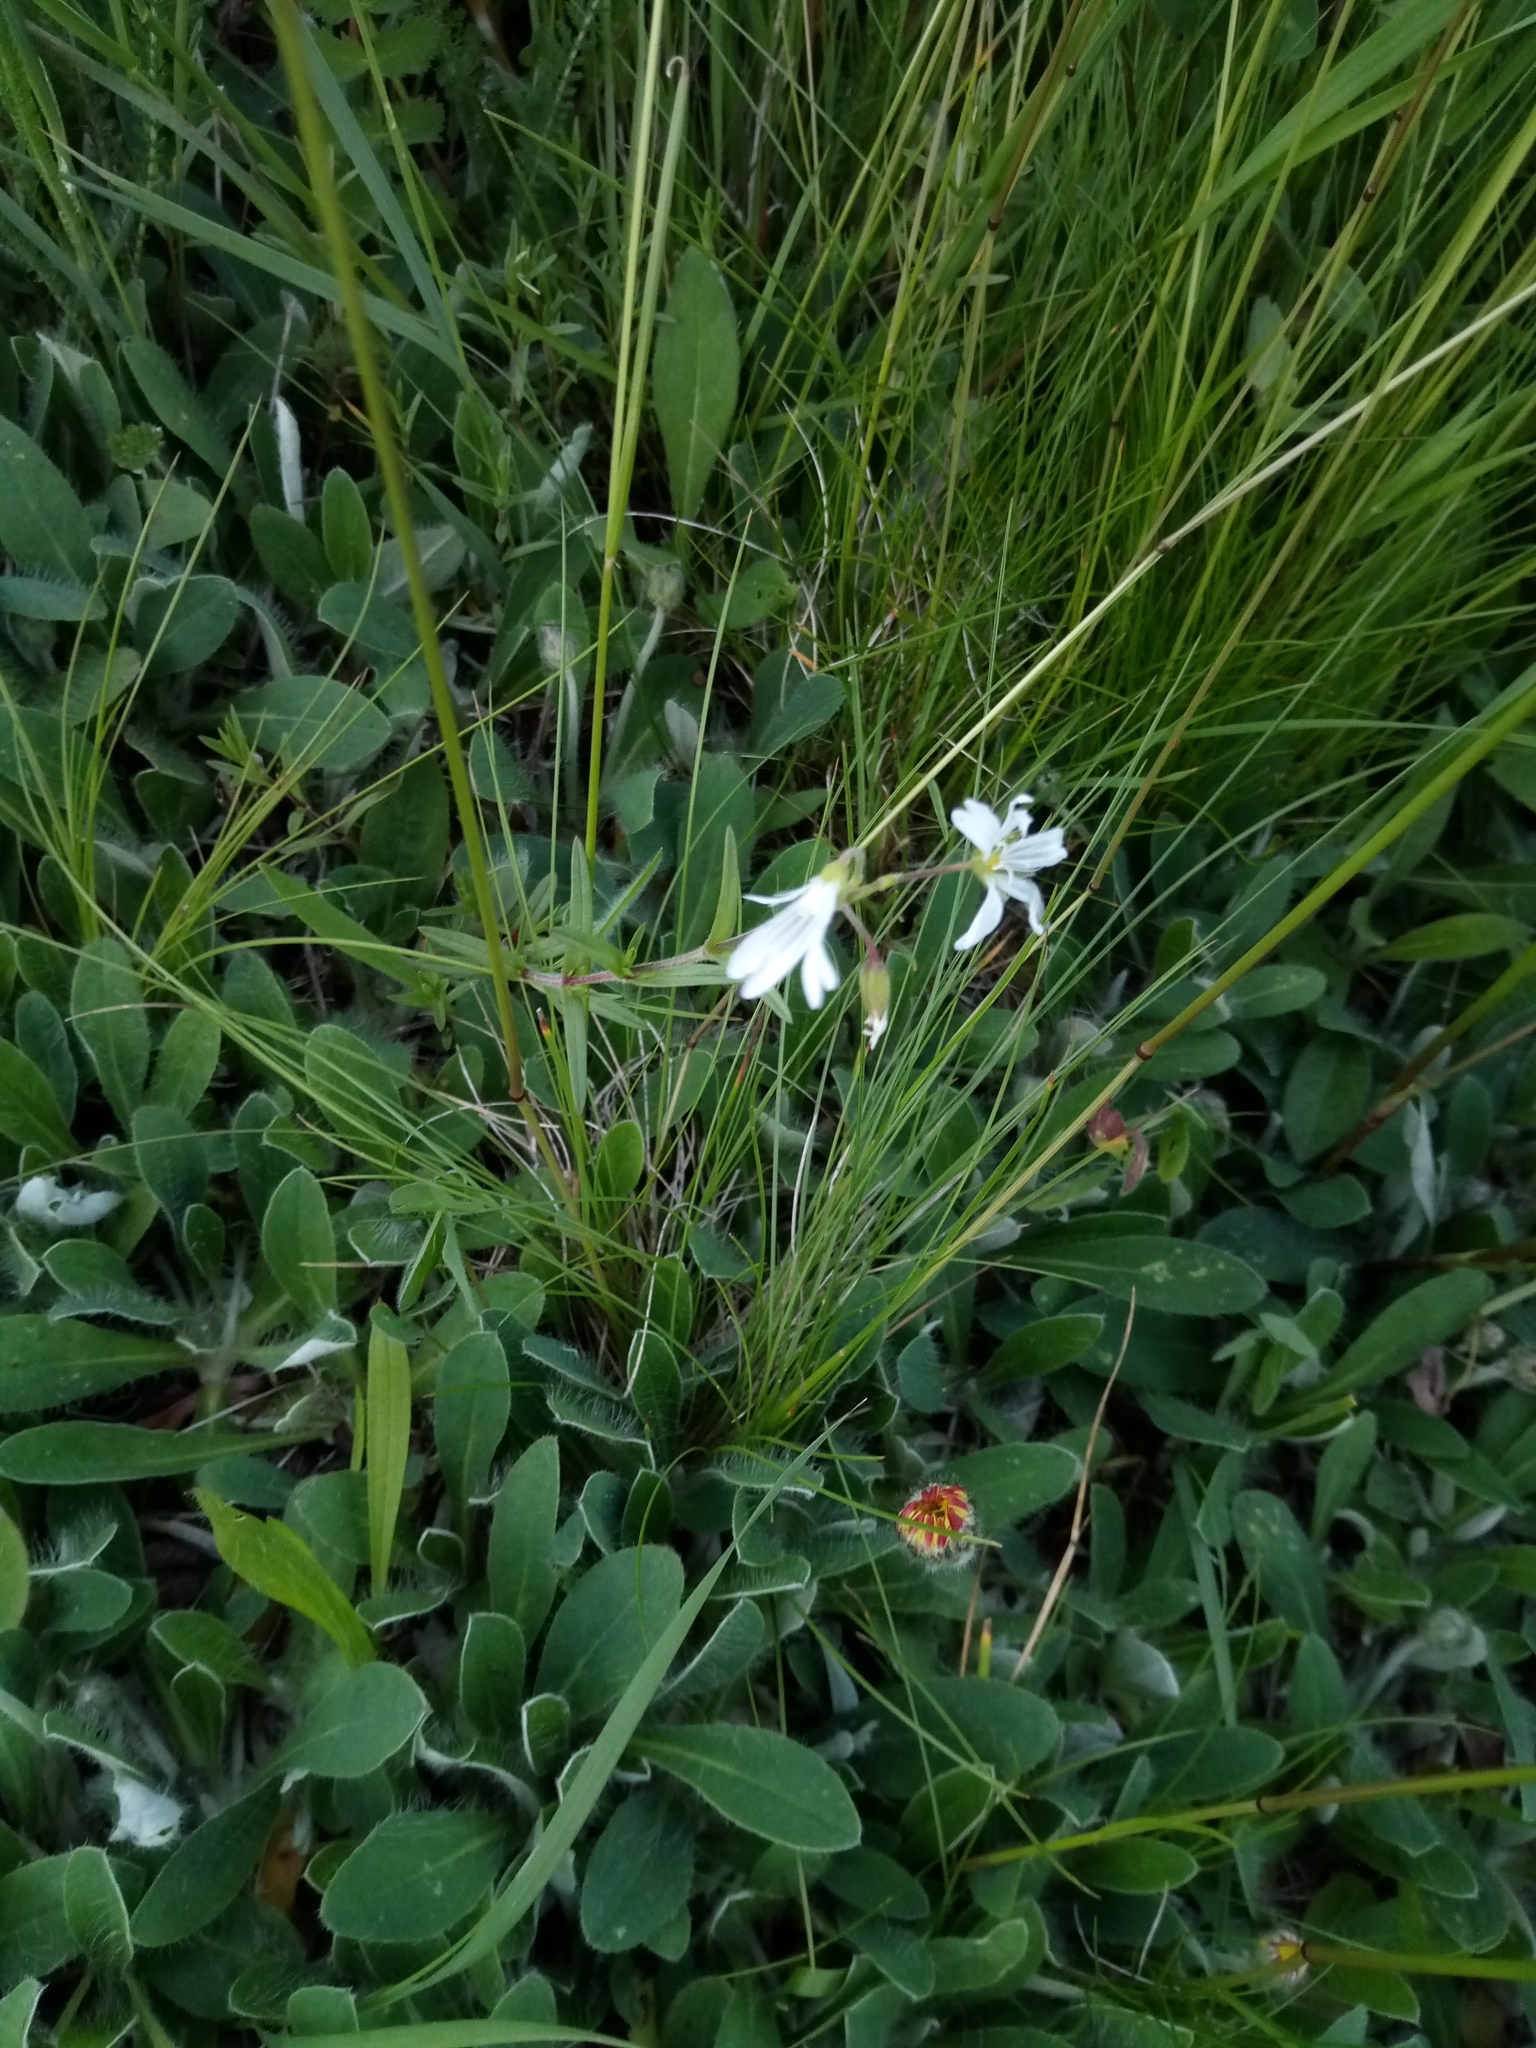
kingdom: Plantae
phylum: Tracheophyta
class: Magnoliopsida
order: Caryophyllales
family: Caryophyllaceae
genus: Cerastium
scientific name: Cerastium arvense
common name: Field mouse-ear
